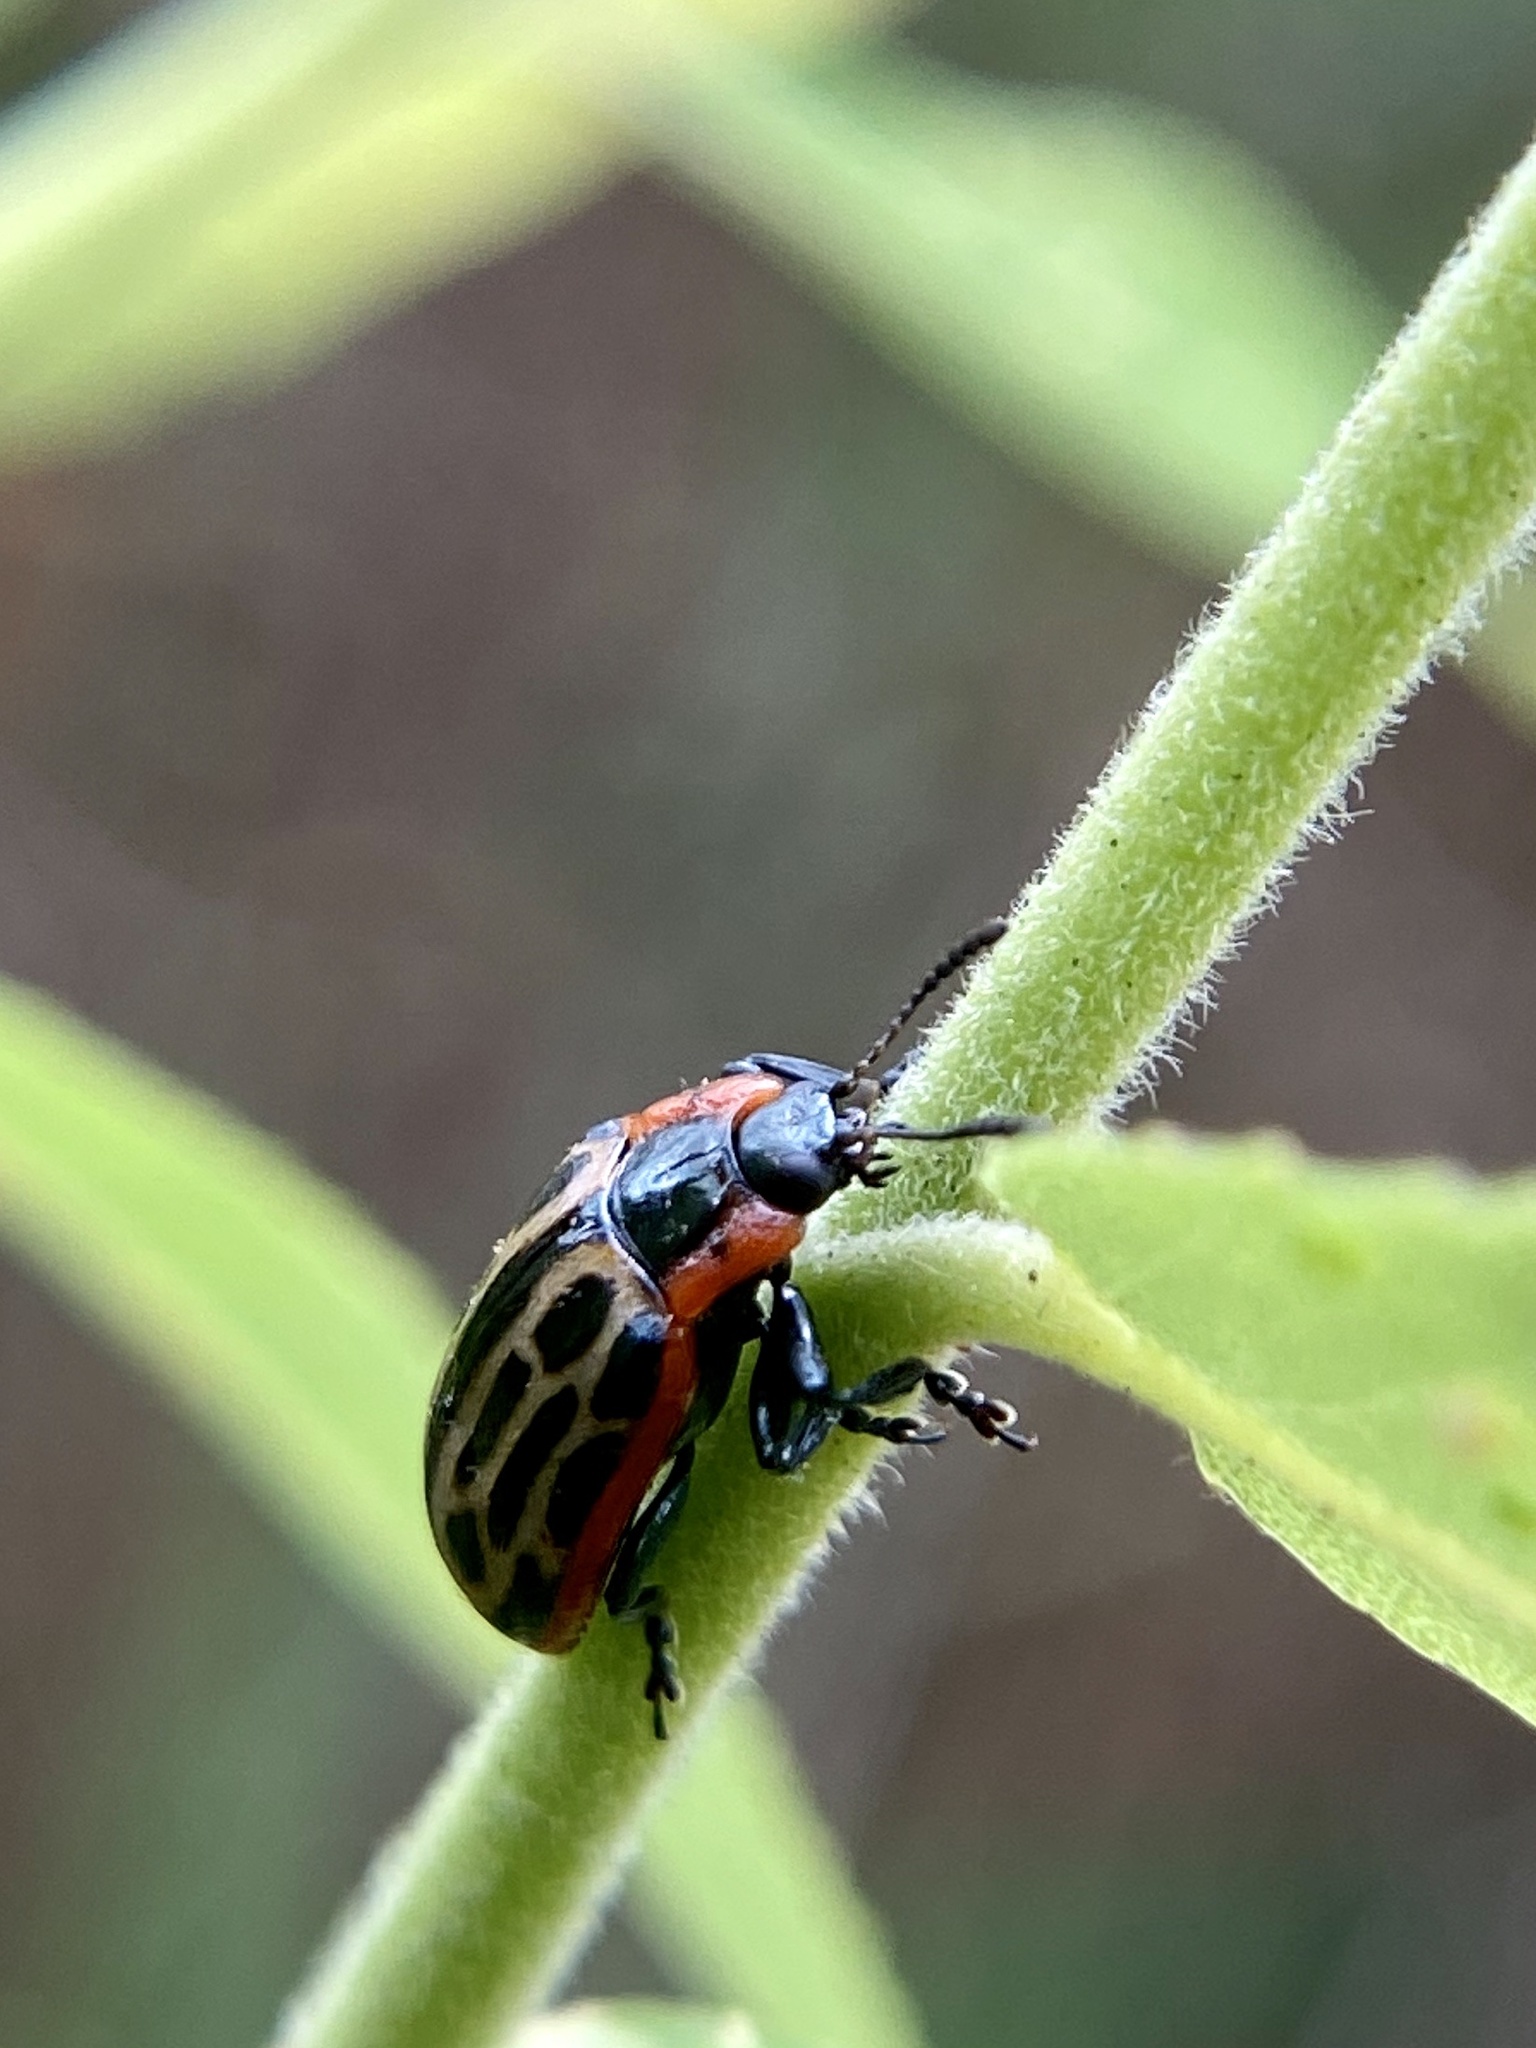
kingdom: Animalia
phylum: Arthropoda
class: Insecta
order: Coleoptera
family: Chrysomelidae
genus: Aethiopocassis
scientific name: Aethiopocassis scripta
